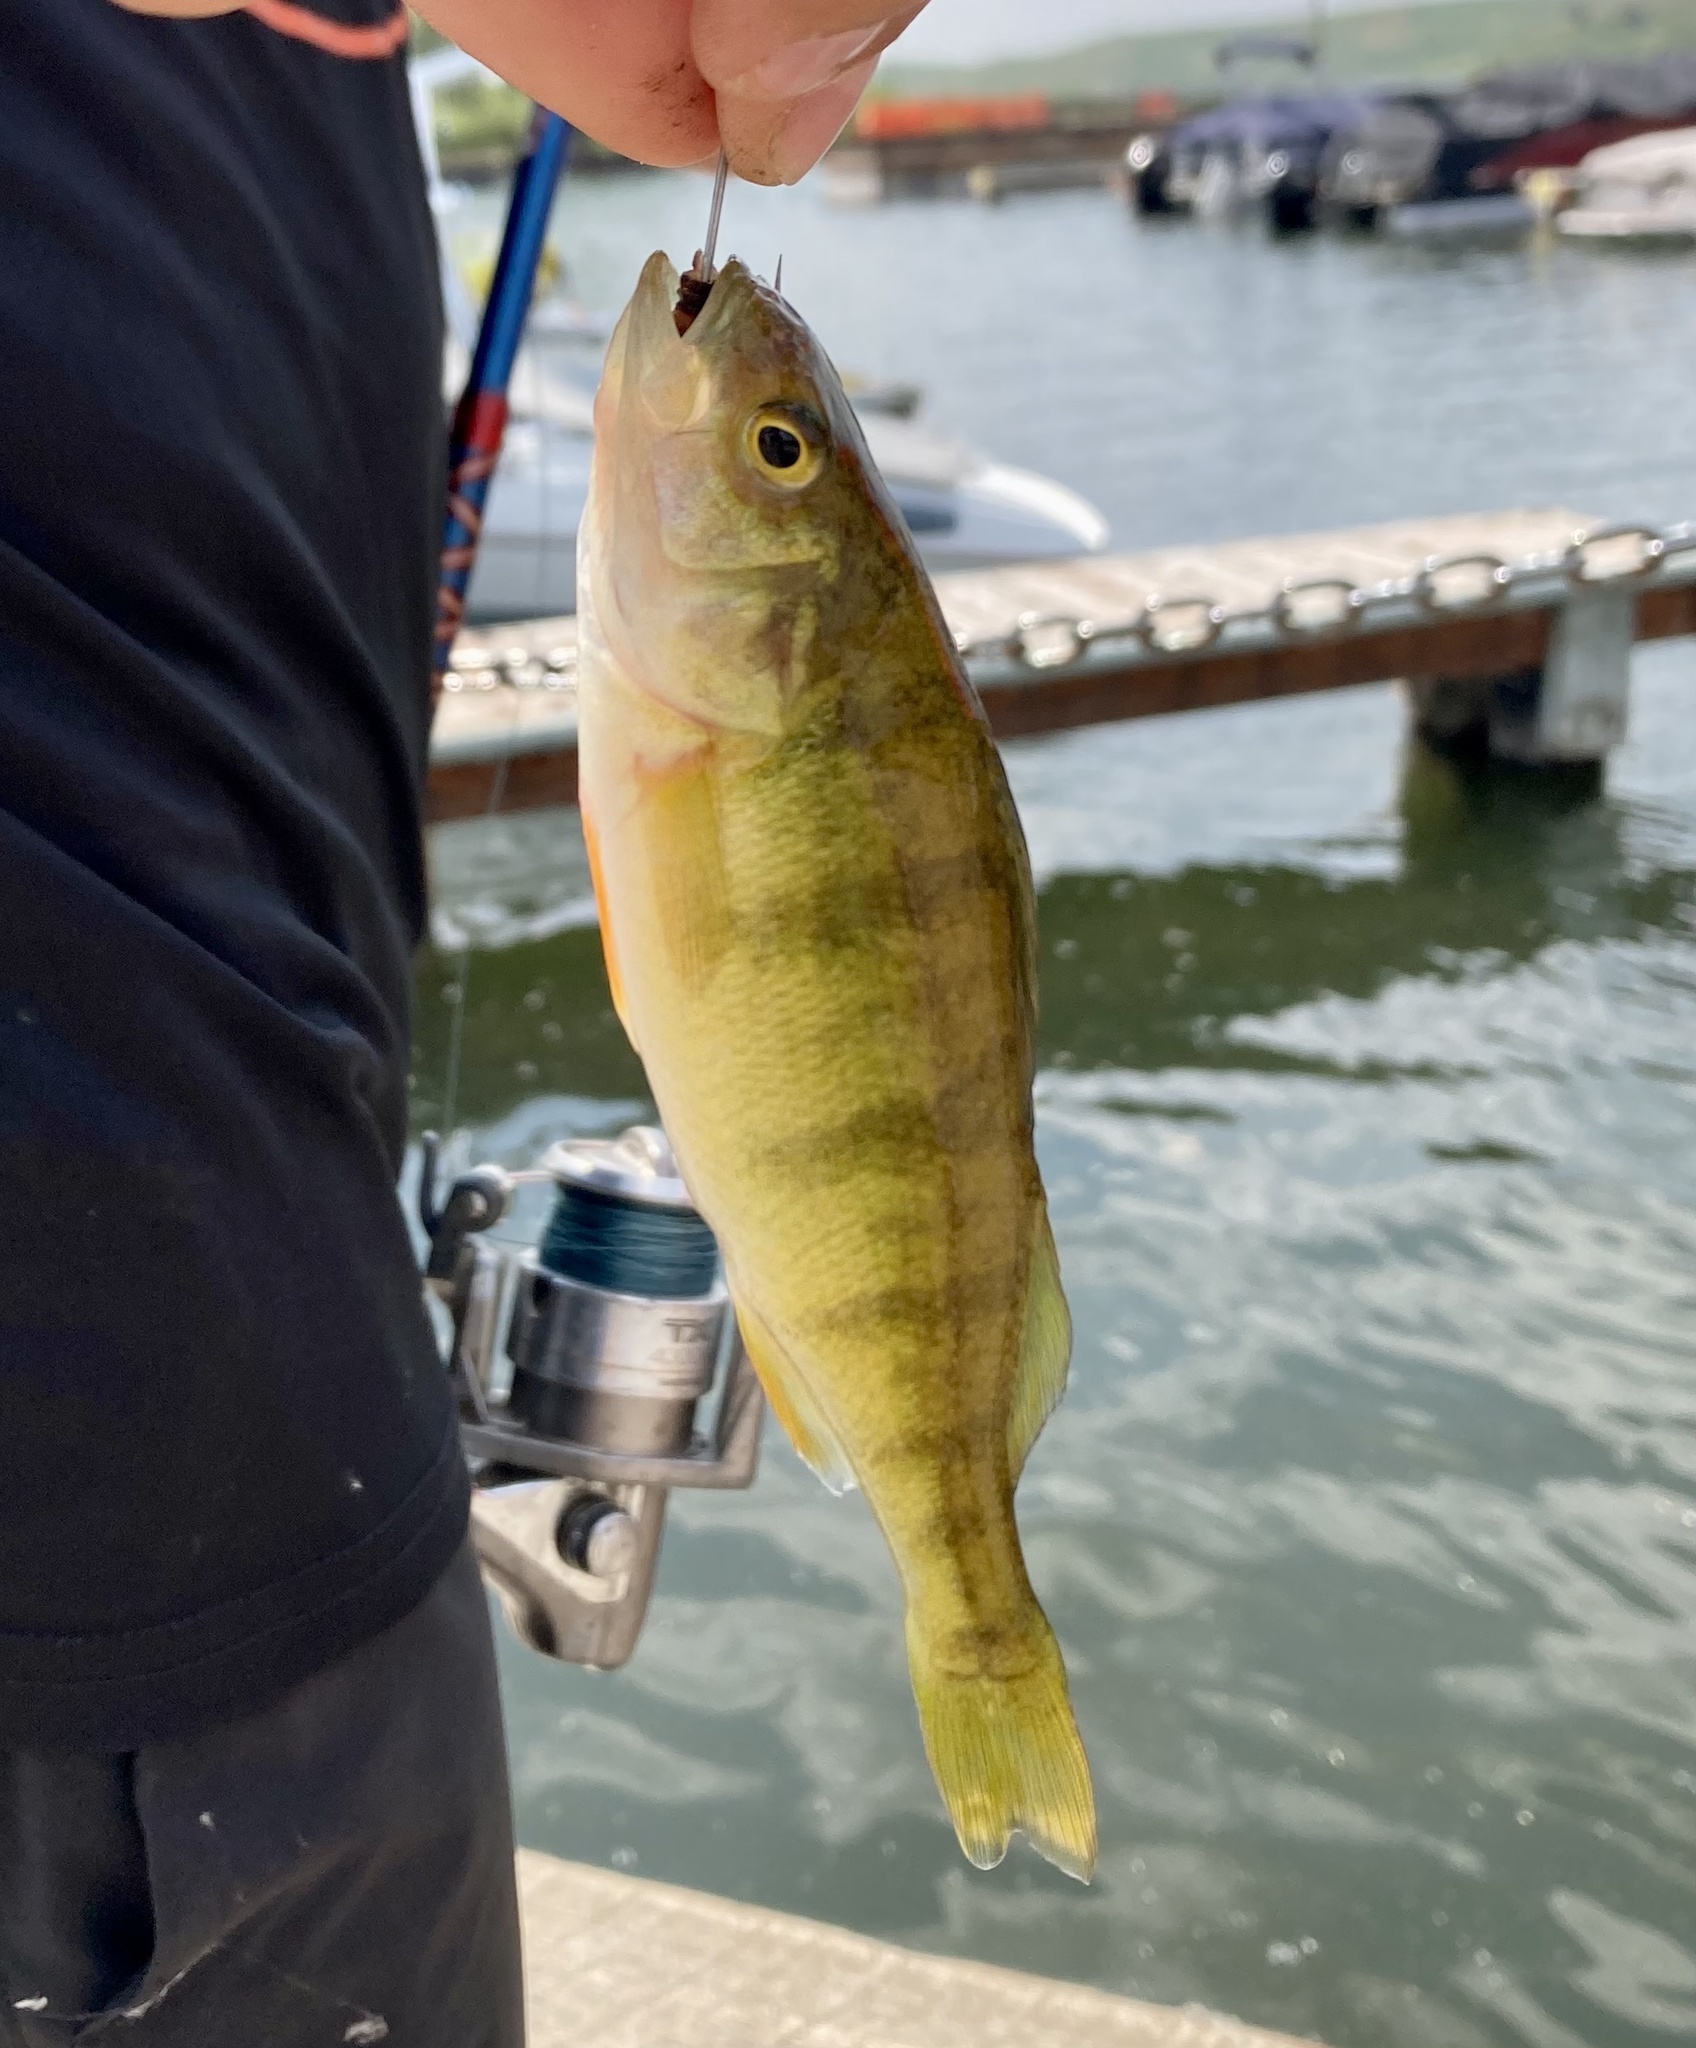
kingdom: Animalia
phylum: Chordata
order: Perciformes
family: Percidae
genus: Perca
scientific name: Perca flavescens
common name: Yellow perch
